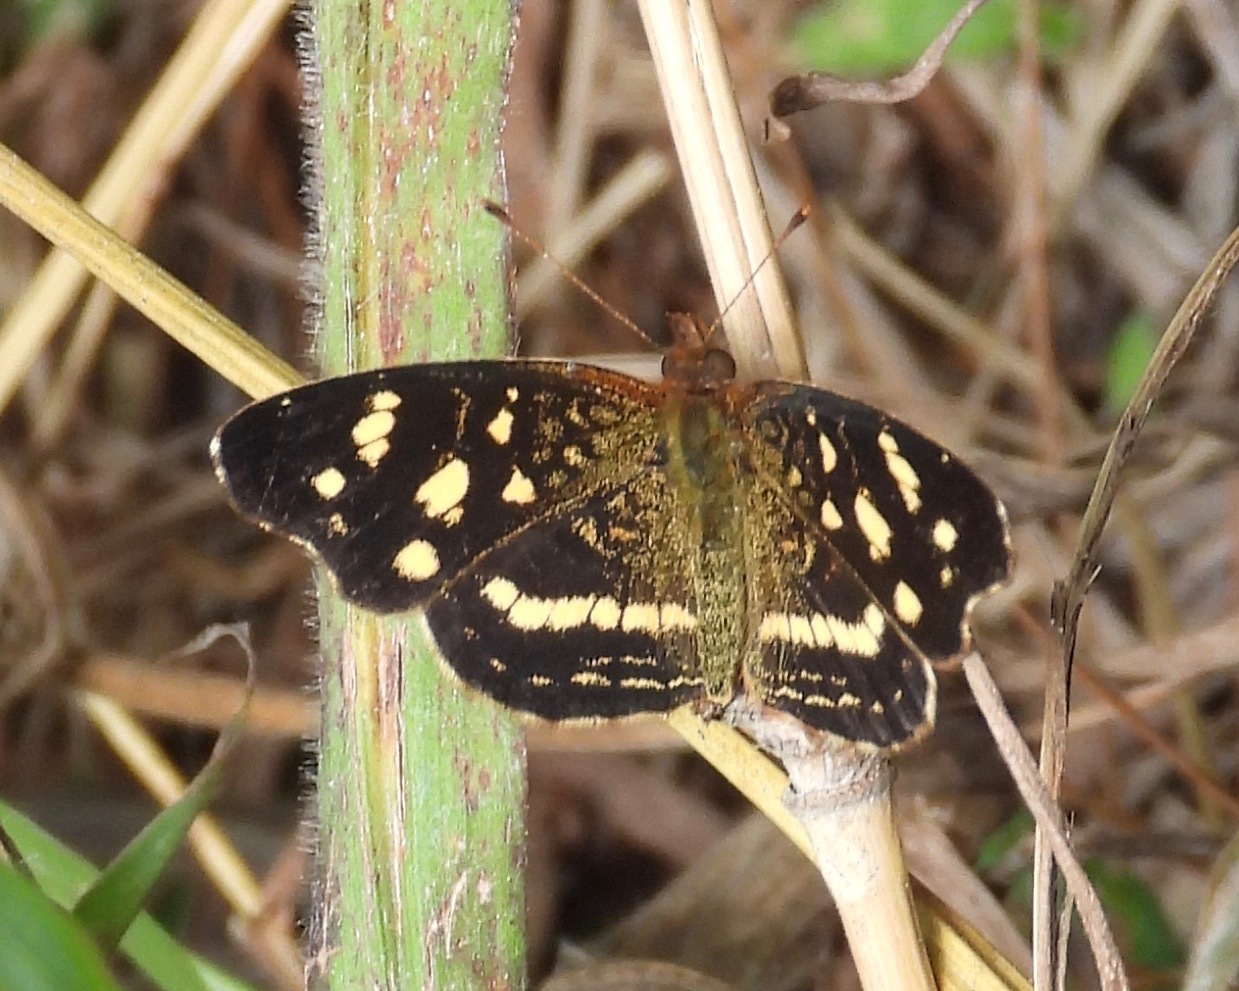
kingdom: Animalia
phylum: Arthropoda
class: Insecta
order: Lepidoptera
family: Nymphalidae
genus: Anthanassa
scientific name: Anthanassa tulcis
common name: Pale-banded crescent
